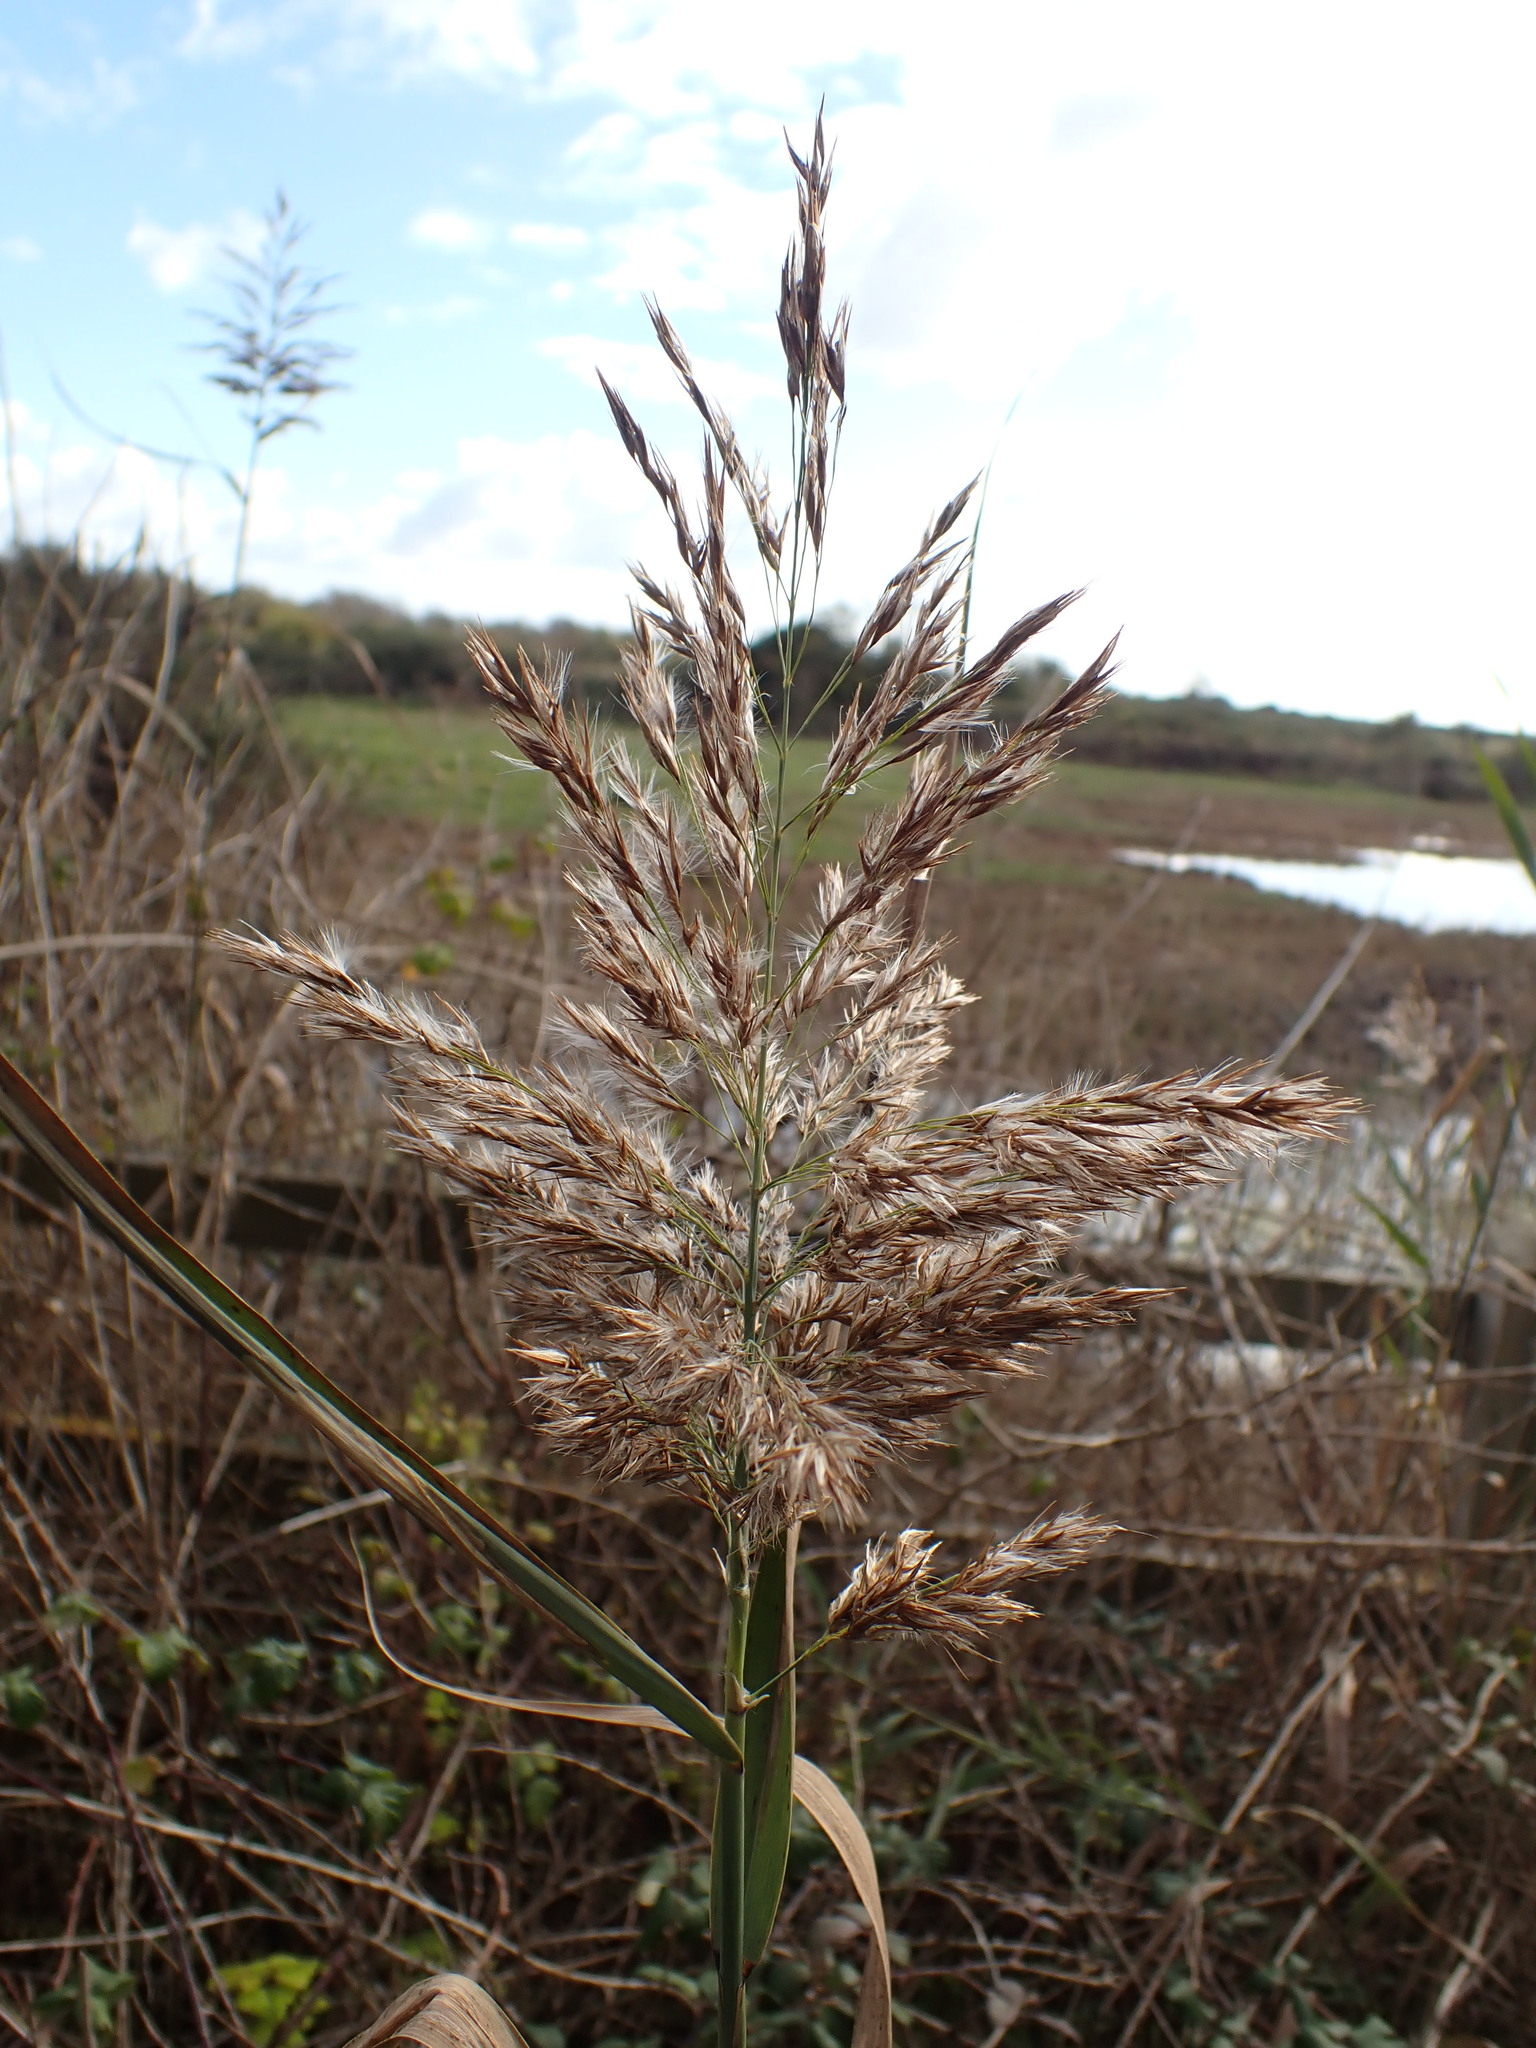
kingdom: Plantae
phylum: Tracheophyta
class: Liliopsida
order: Poales
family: Poaceae
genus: Phragmites
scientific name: Phragmites australis
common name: Common reed
